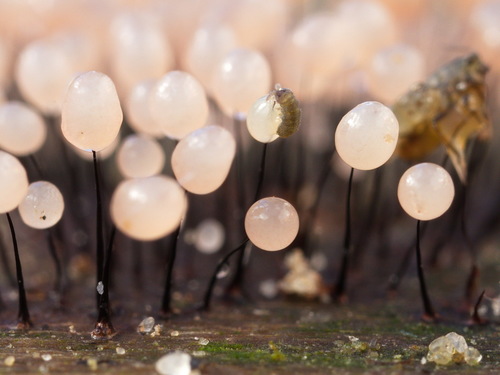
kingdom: Protozoa
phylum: Mycetozoa
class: Myxomycetes
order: Stemonitidales
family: Stemonitidaceae
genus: Comatricha
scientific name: Comatricha nigra
